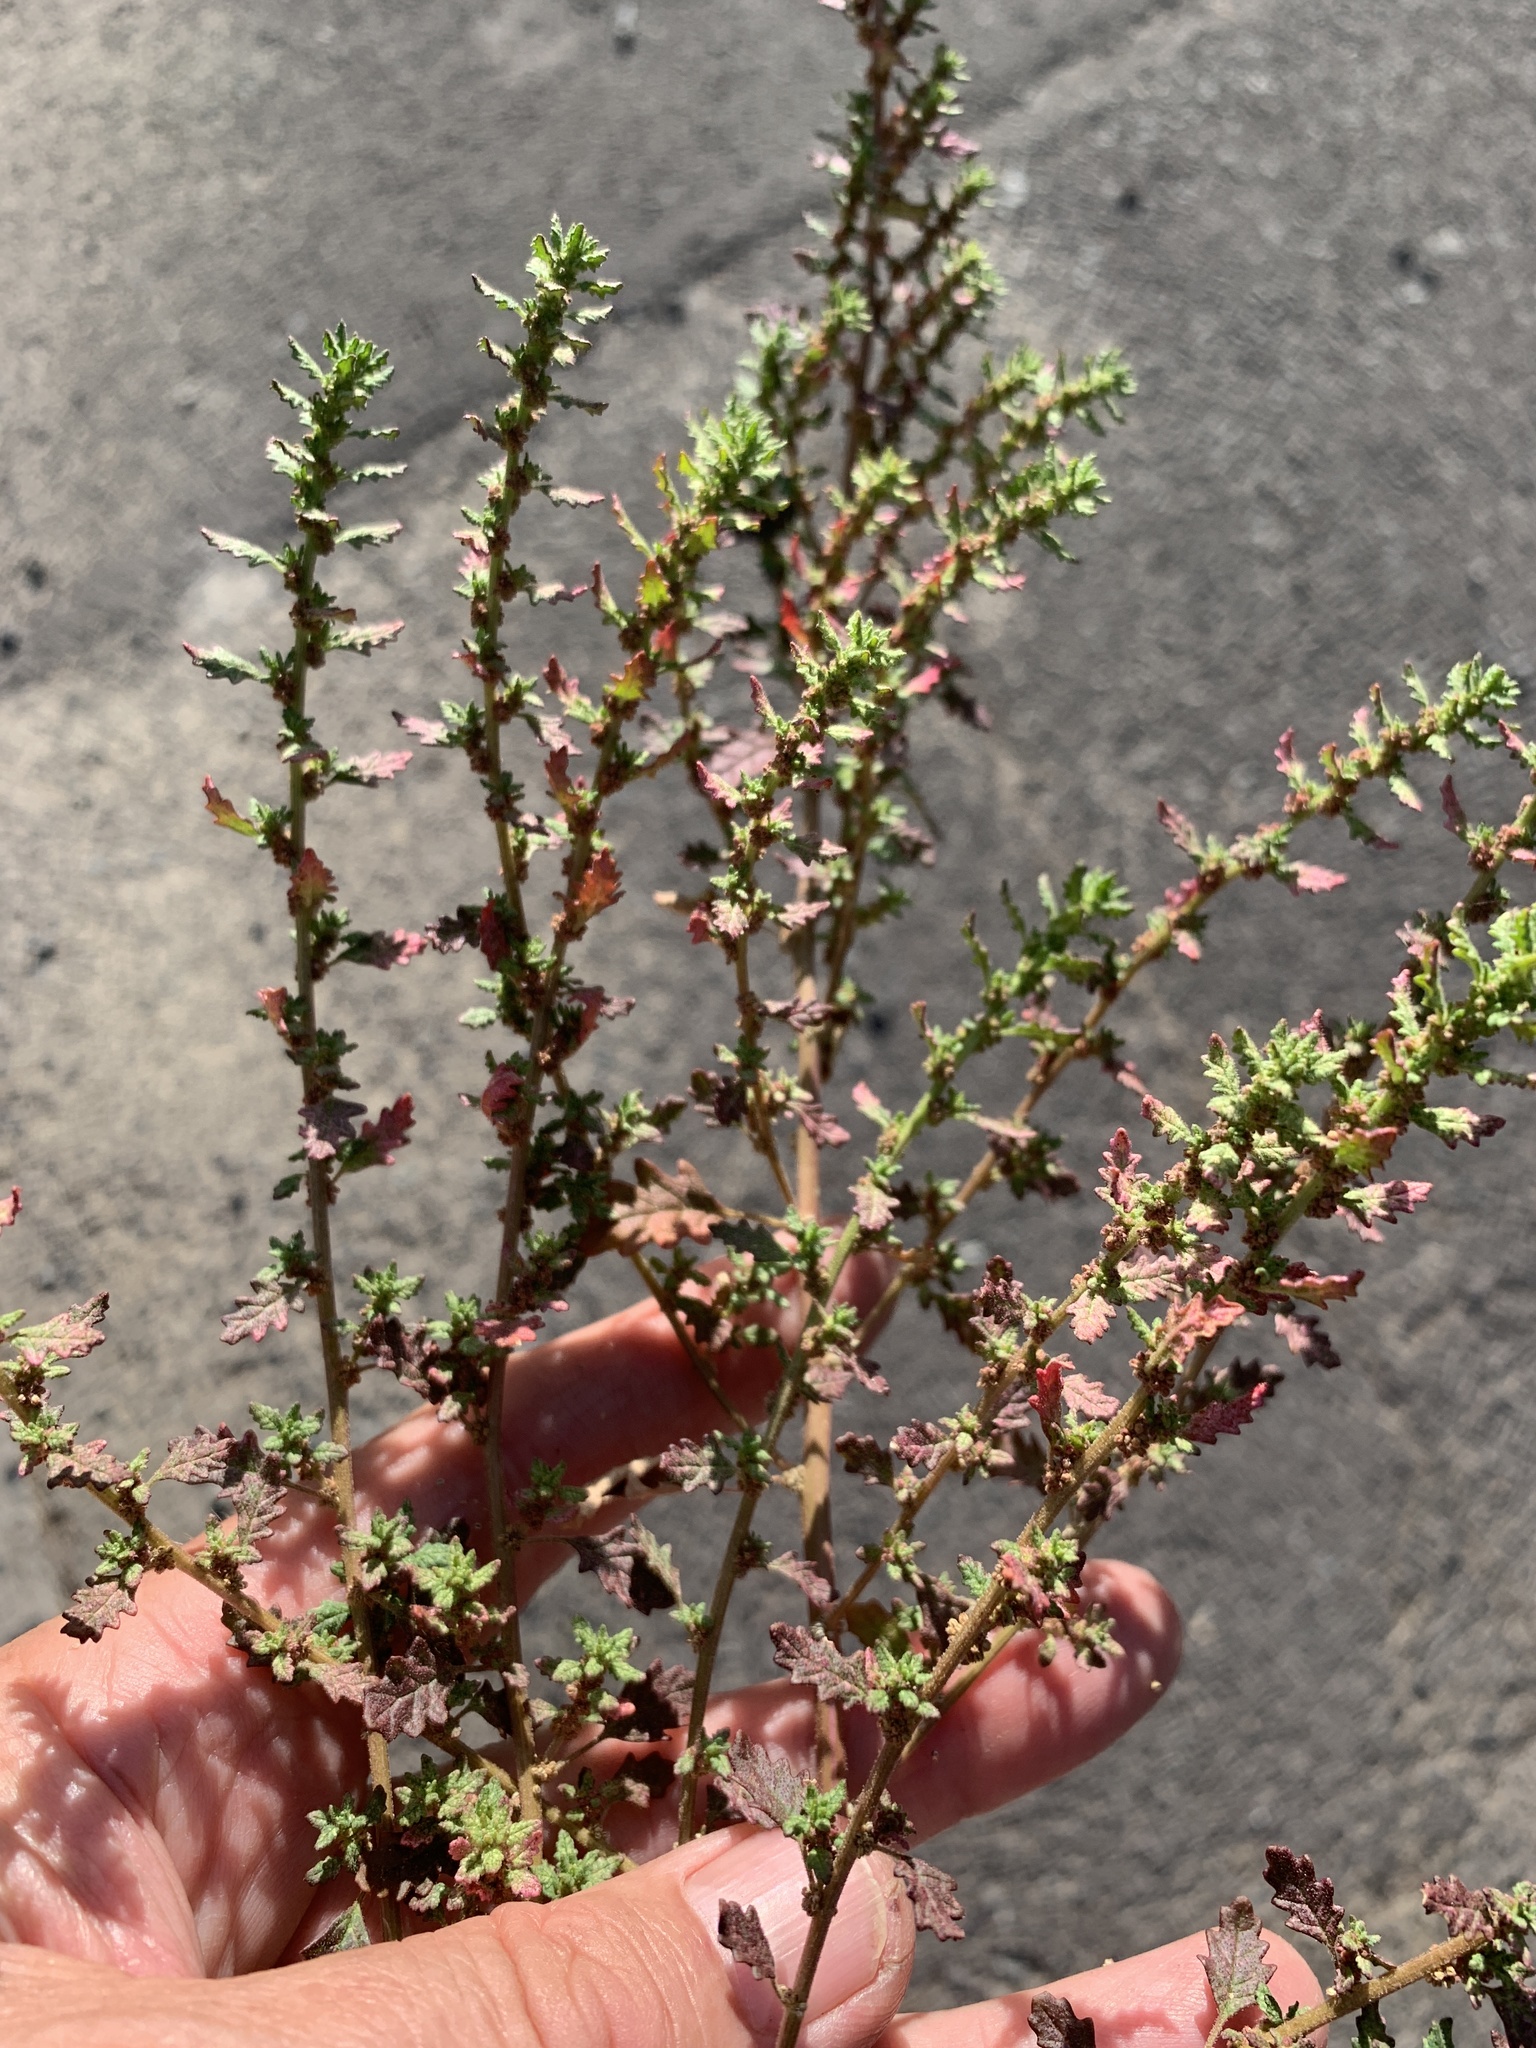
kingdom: Plantae
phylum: Tracheophyta
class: Magnoliopsida
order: Caryophyllales
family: Amaranthaceae
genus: Dysphania
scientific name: Dysphania pumilio
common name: Clammy goosefoot
